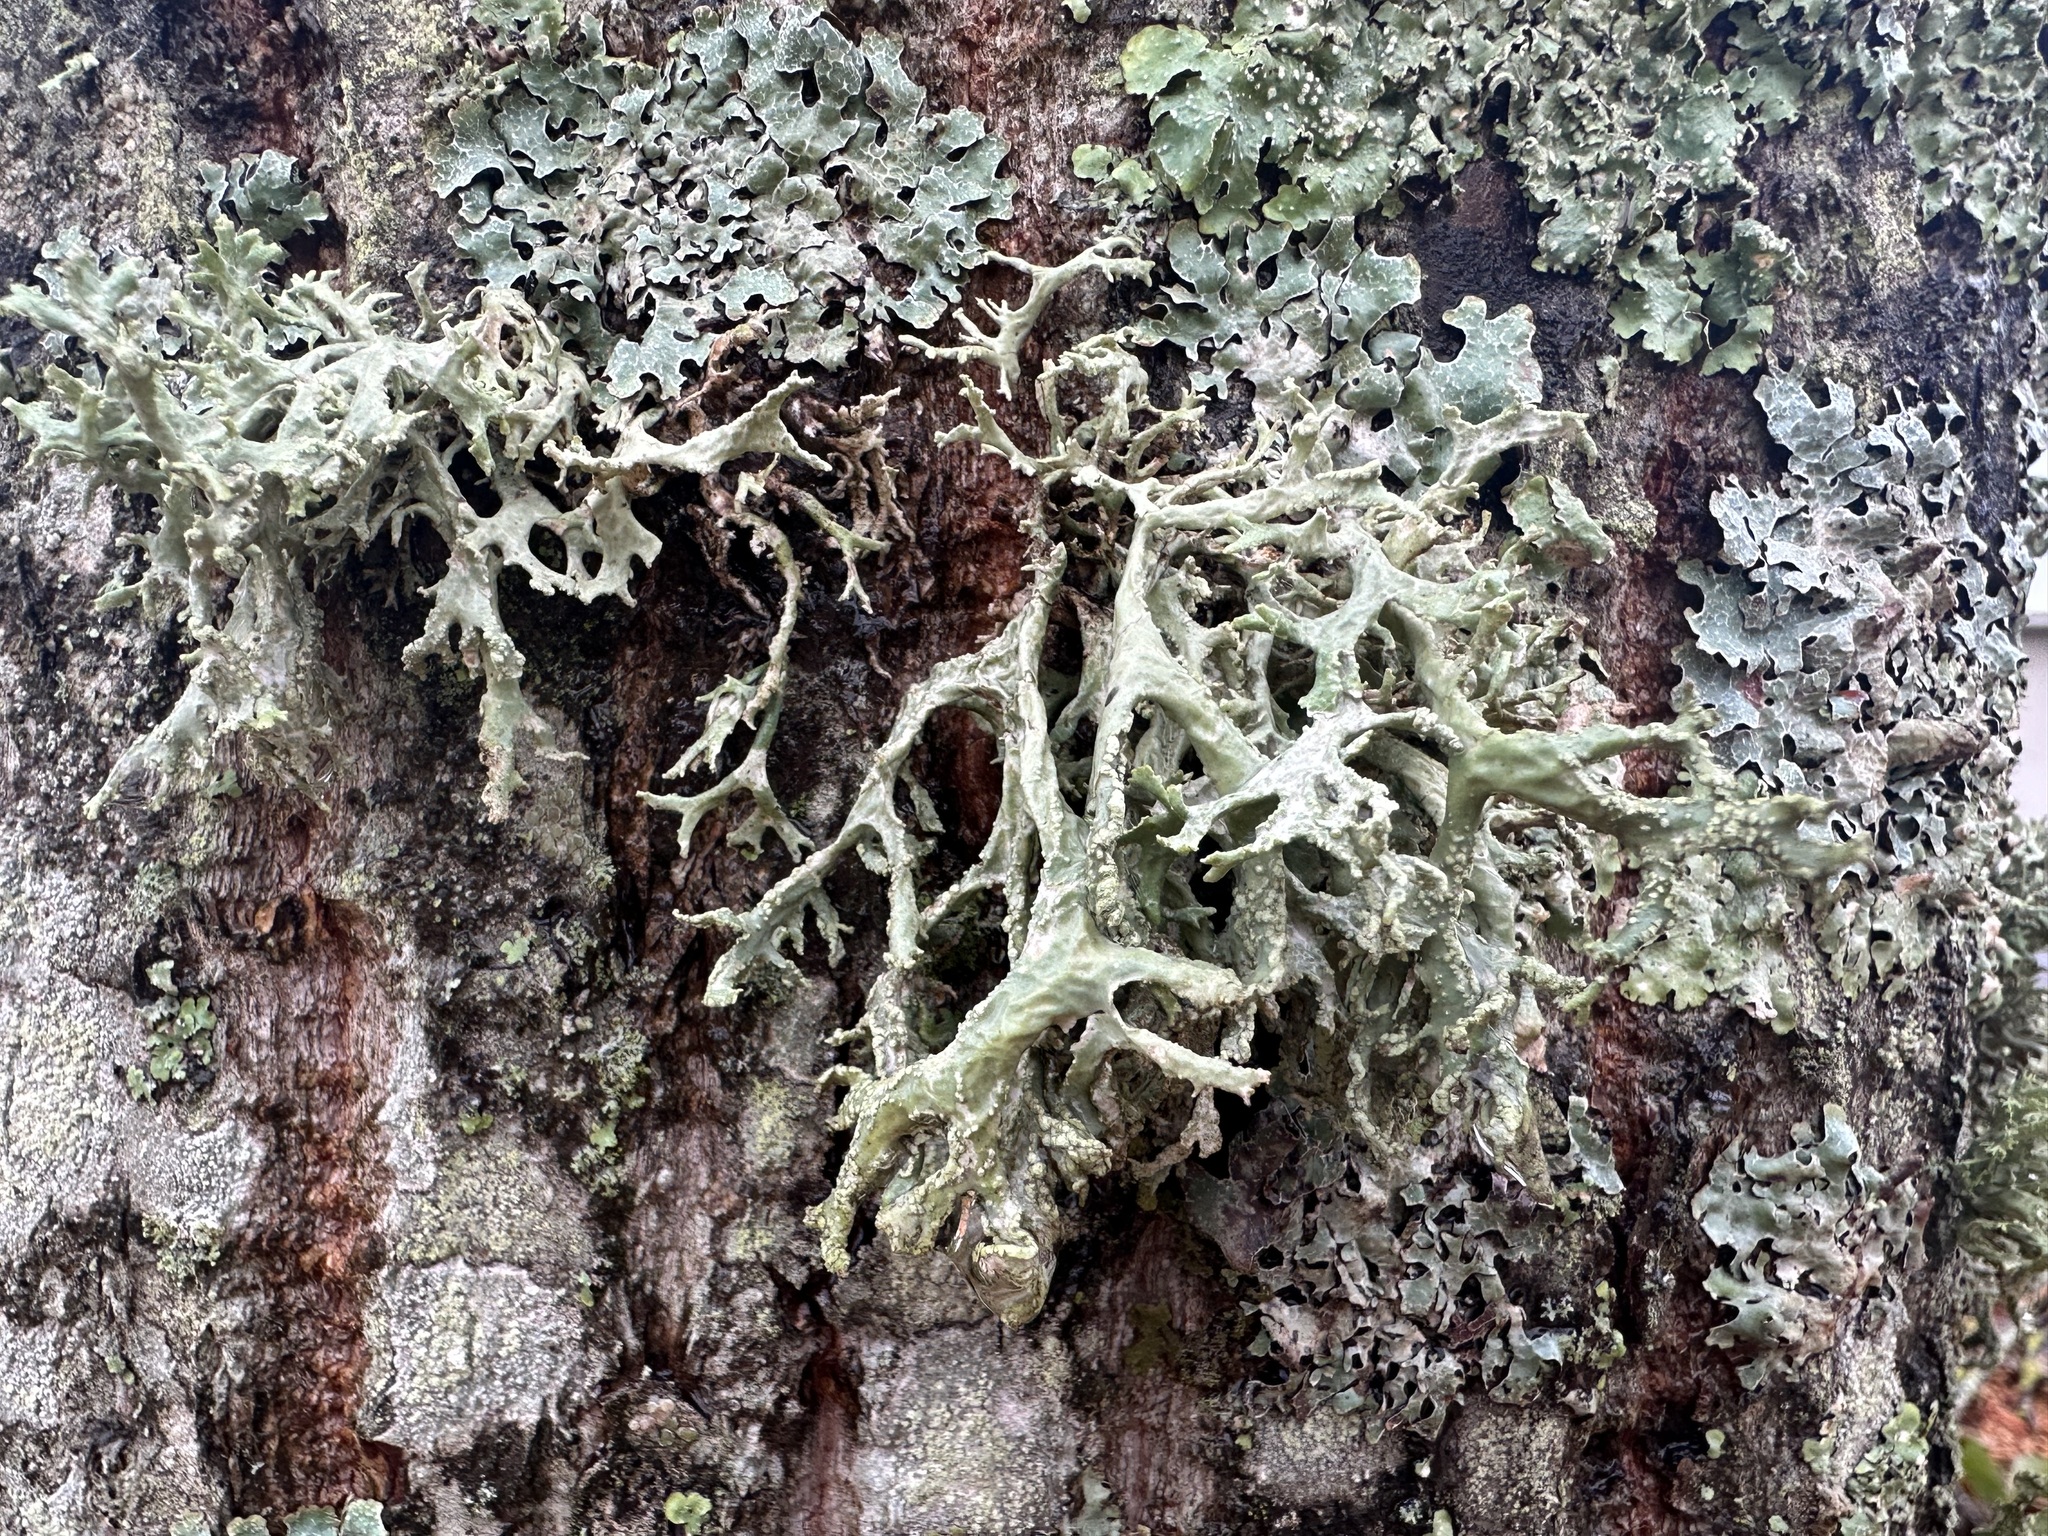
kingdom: Fungi
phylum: Ascomycota
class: Lecanoromycetes
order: Lecanorales
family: Parmeliaceae
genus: Evernia
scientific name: Evernia prunastri
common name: Oak moss
